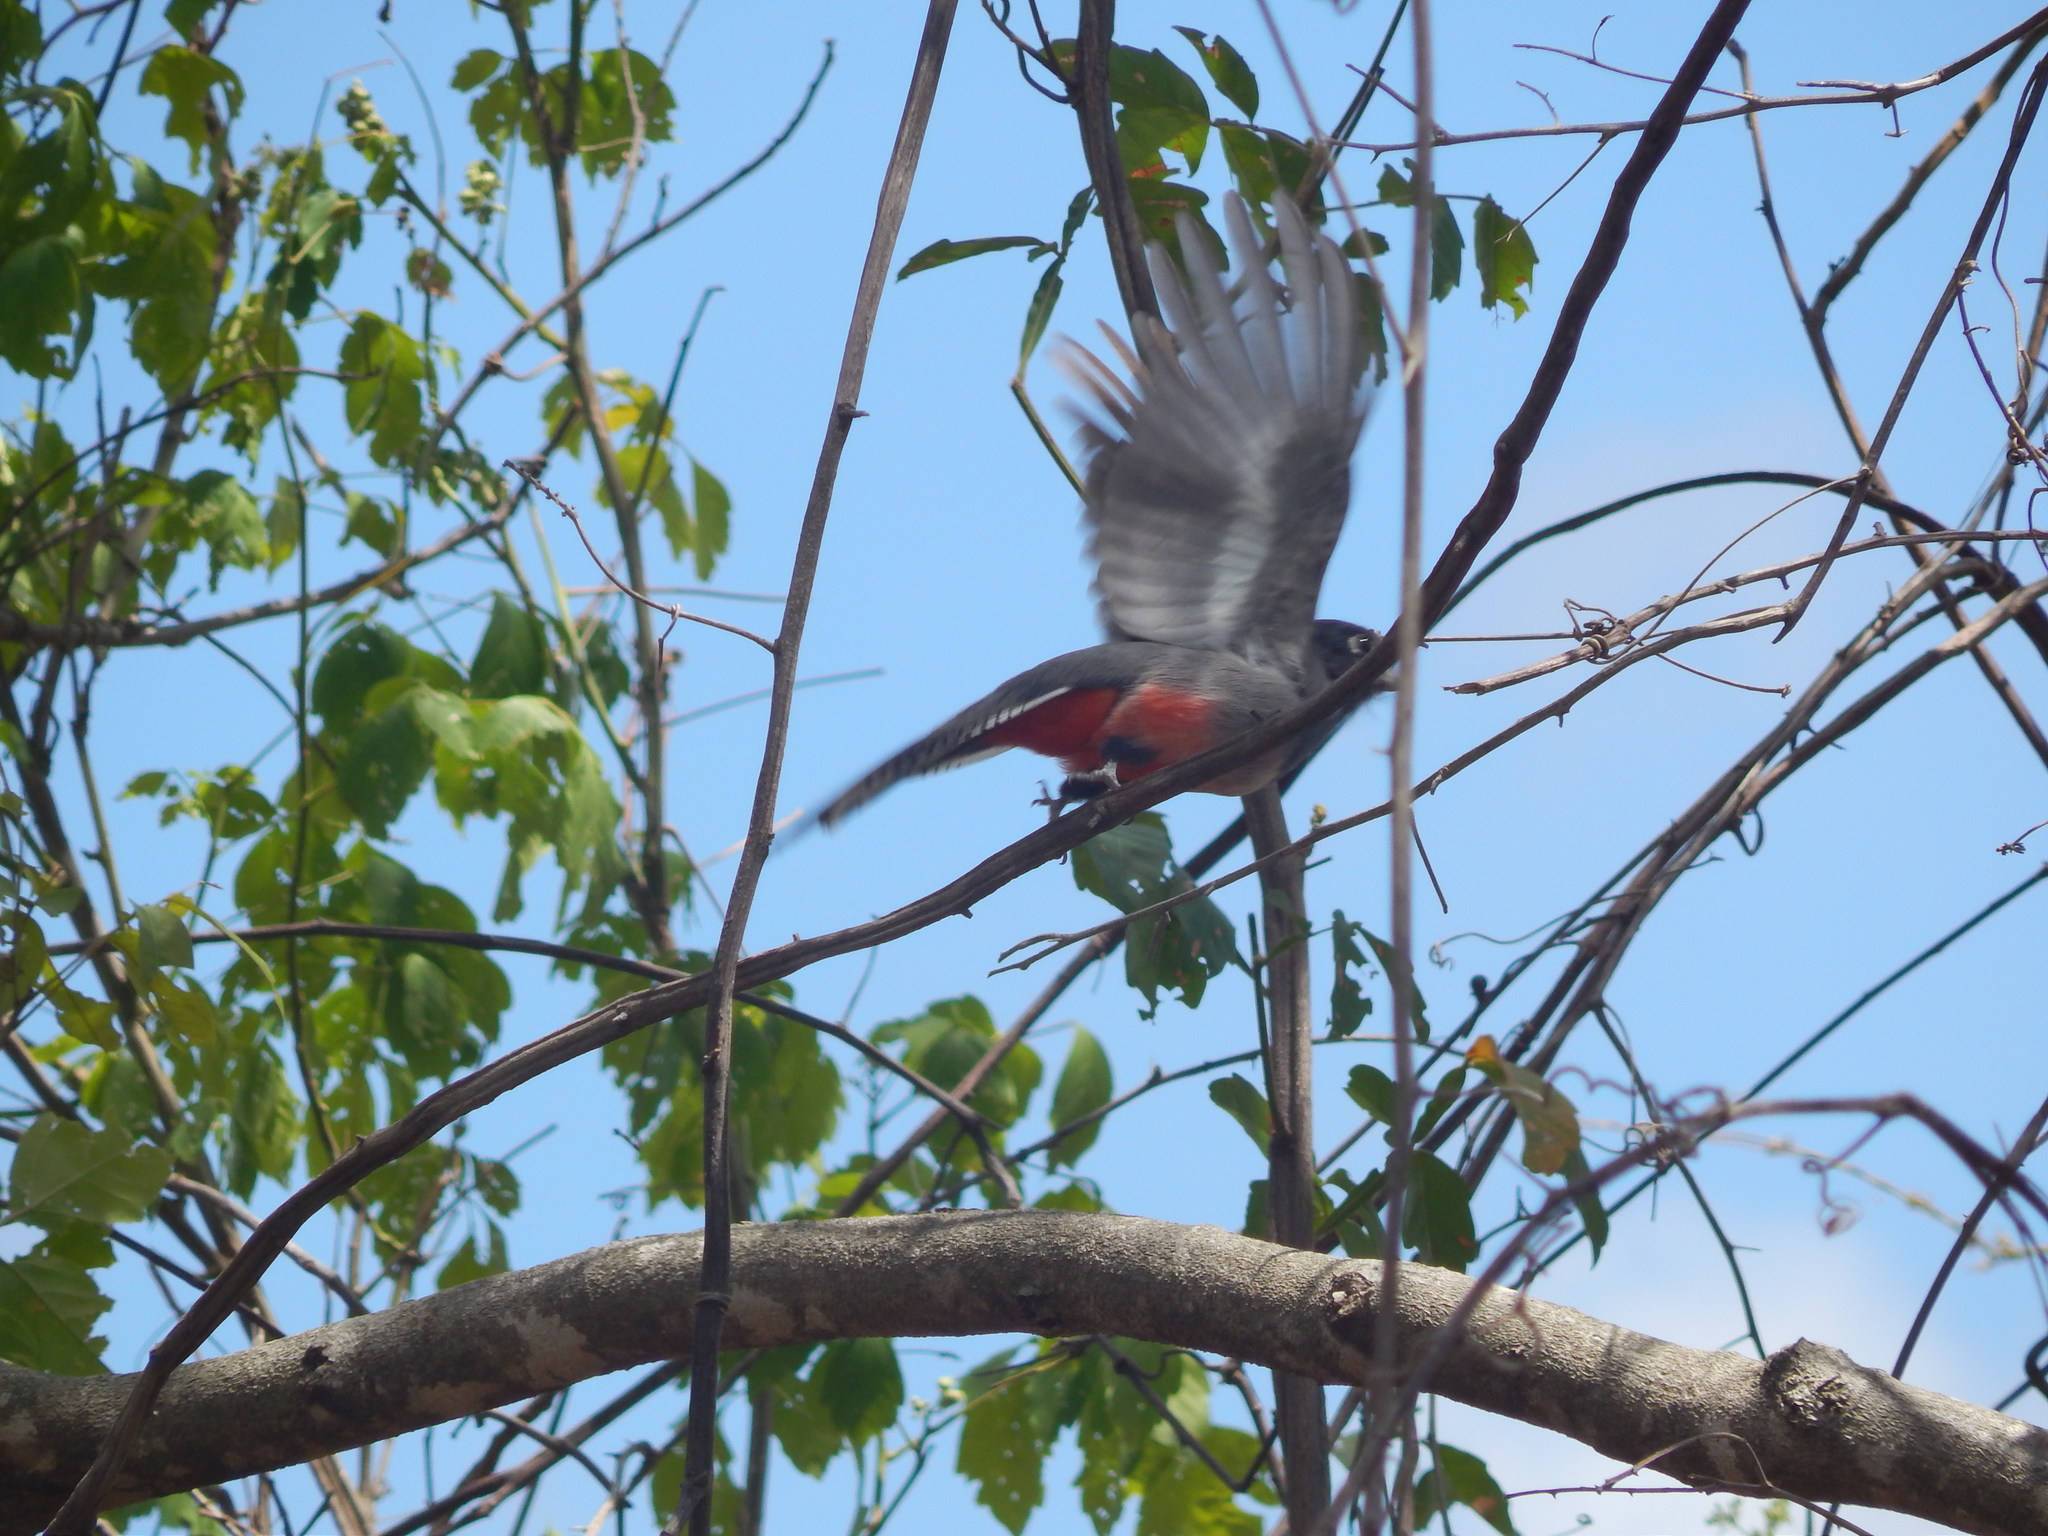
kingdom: Animalia
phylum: Chordata
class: Aves
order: Trogoniformes
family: Trogonidae
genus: Trogon
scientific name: Trogon curucui
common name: Blue-crowned trogon
